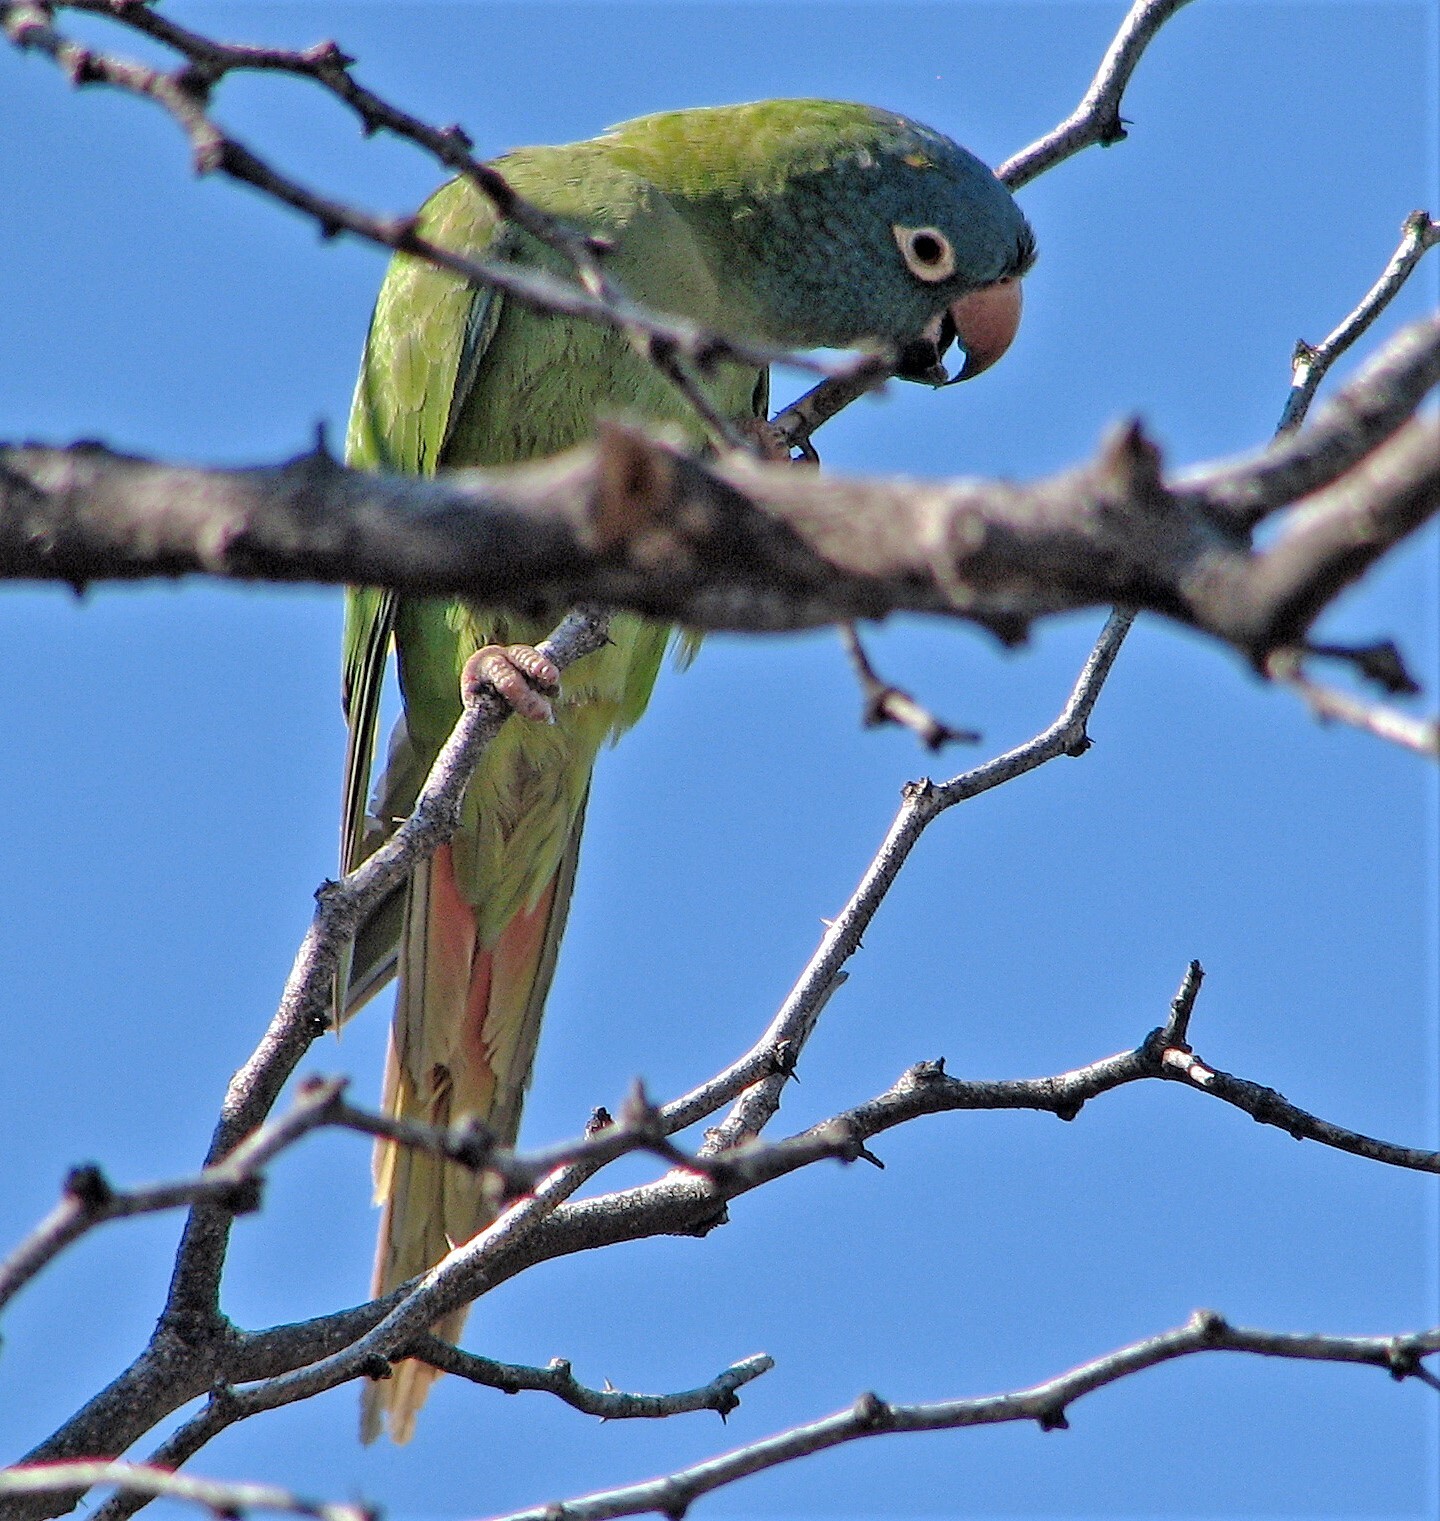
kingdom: Animalia
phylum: Chordata
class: Aves
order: Psittaciformes
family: Psittacidae
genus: Aratinga
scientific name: Aratinga acuticaudata
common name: Blue-crowned parakeet
